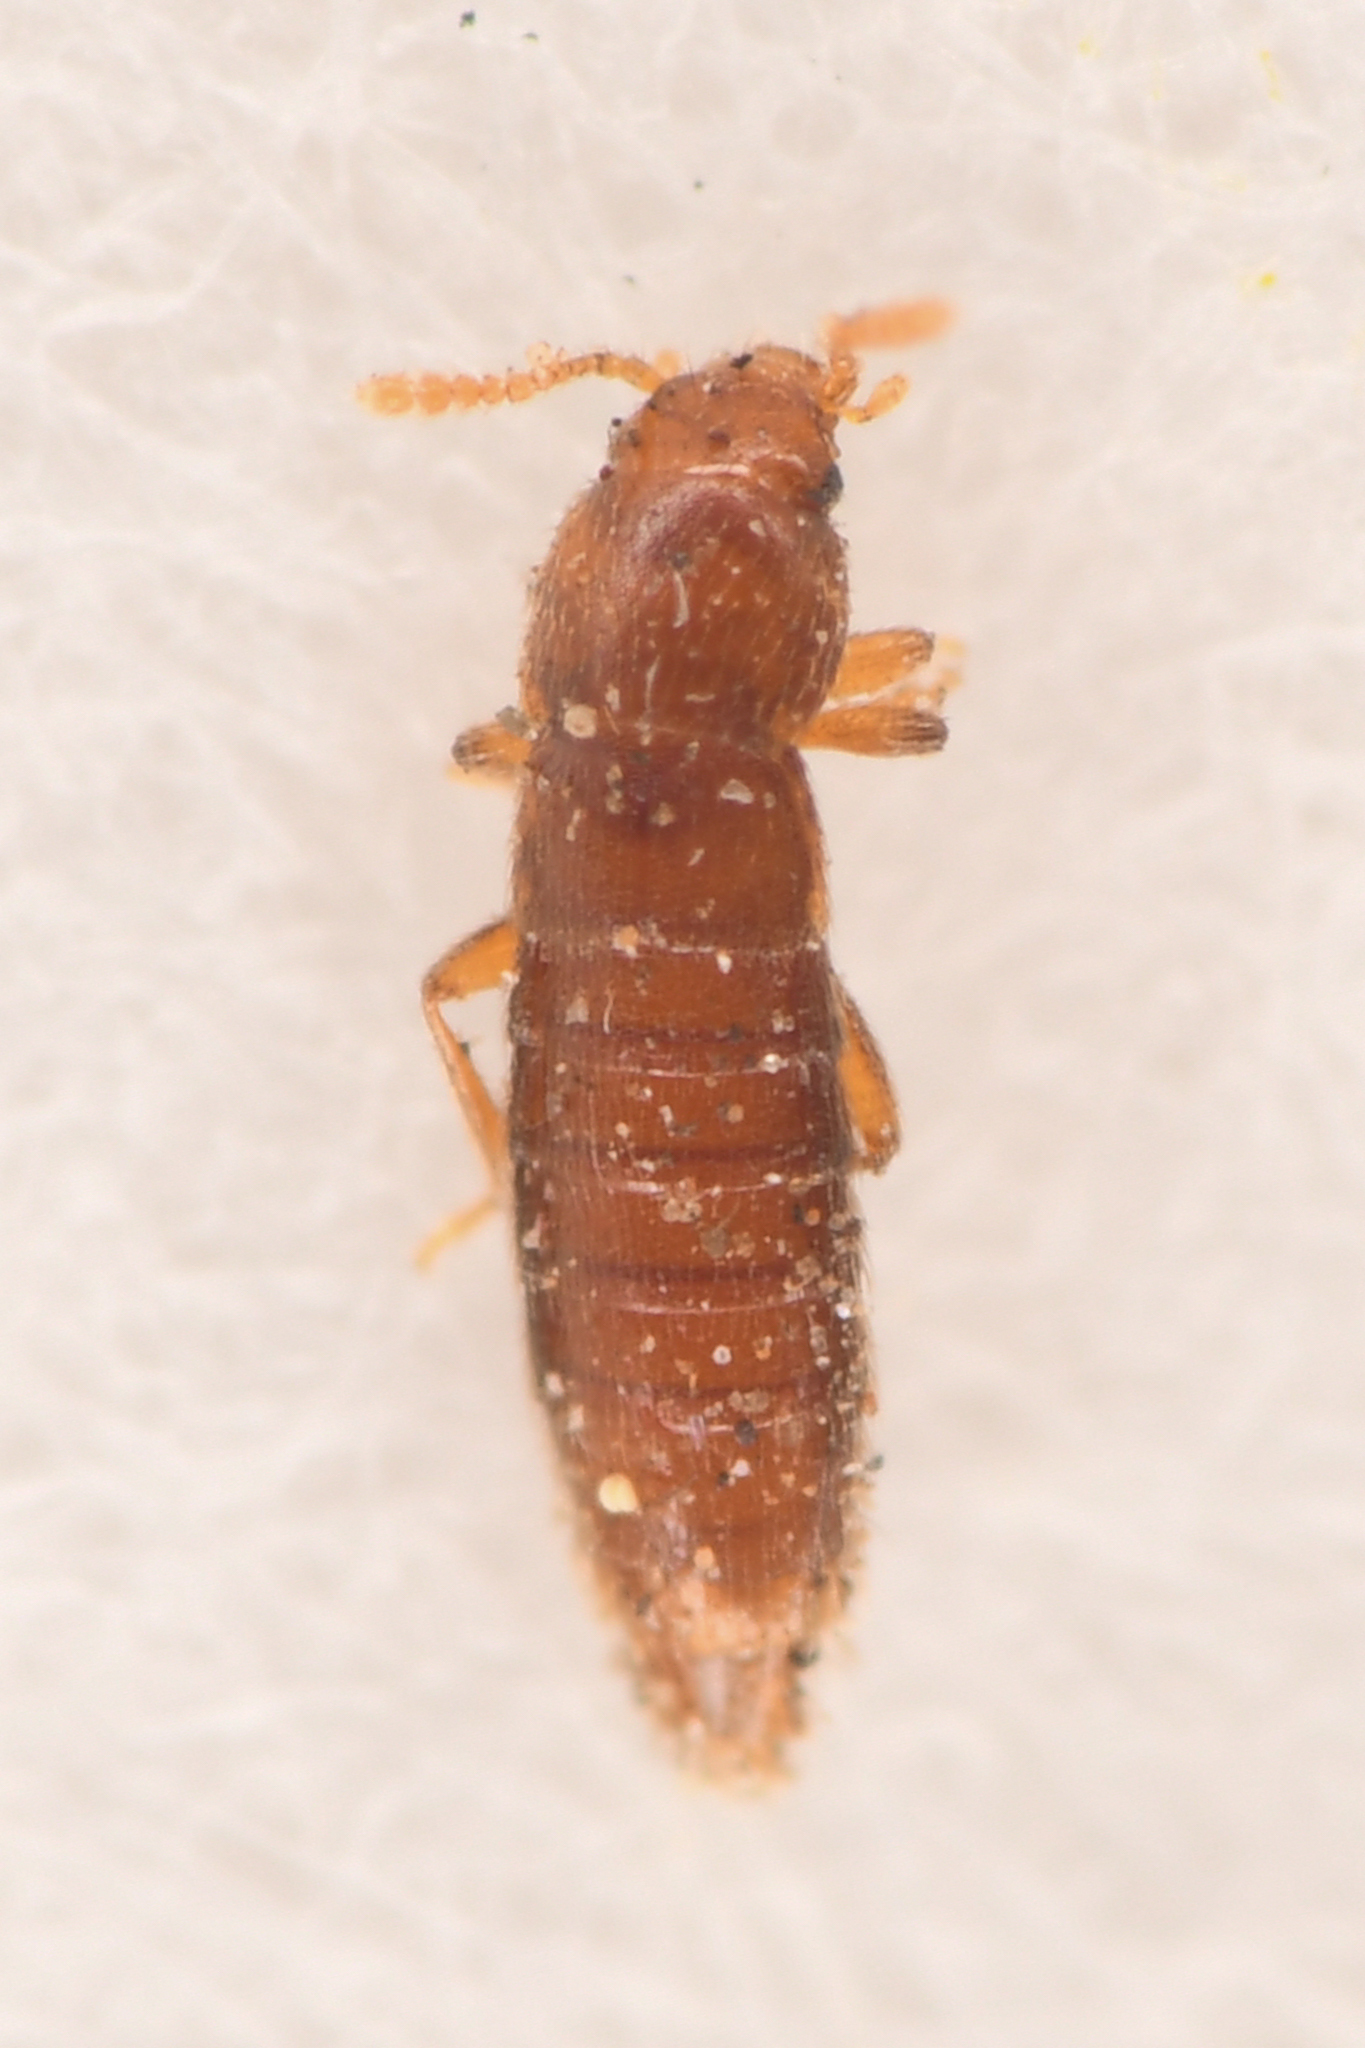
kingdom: Animalia
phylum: Arthropoda
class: Insecta
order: Coleoptera
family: Staphylinidae
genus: Dytoscotes
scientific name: Dytoscotes pacificus
